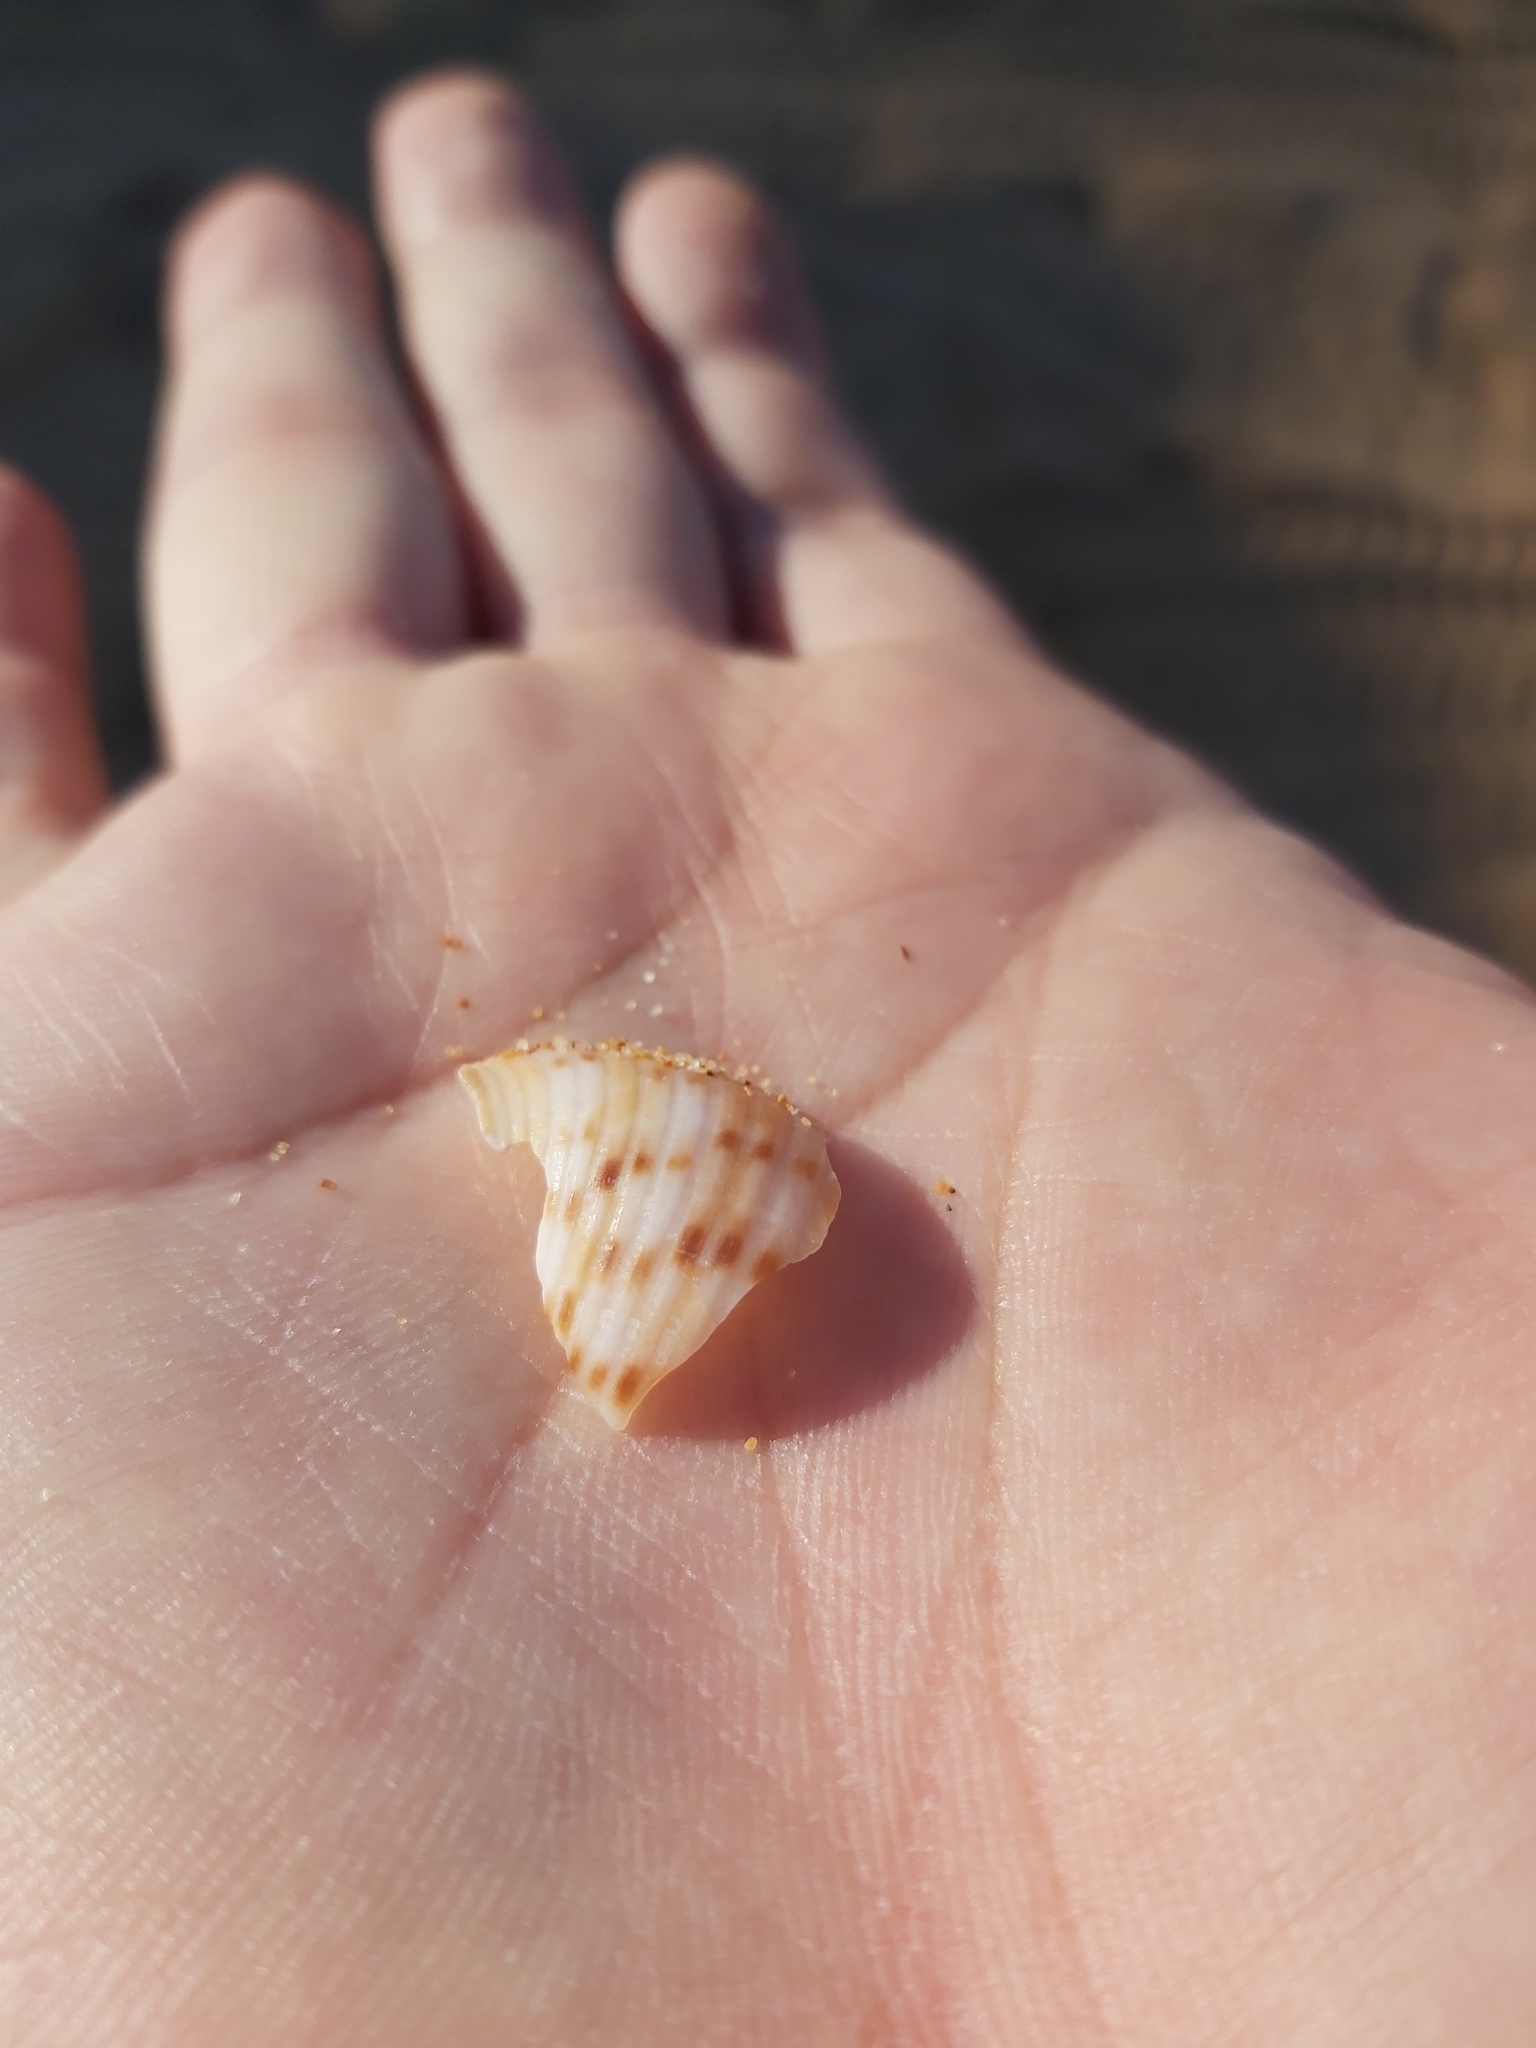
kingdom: Animalia
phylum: Mollusca
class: Gastropoda
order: Littorinimorpha
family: Tonnidae
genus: Tonna
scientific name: Tonna tankervillii
